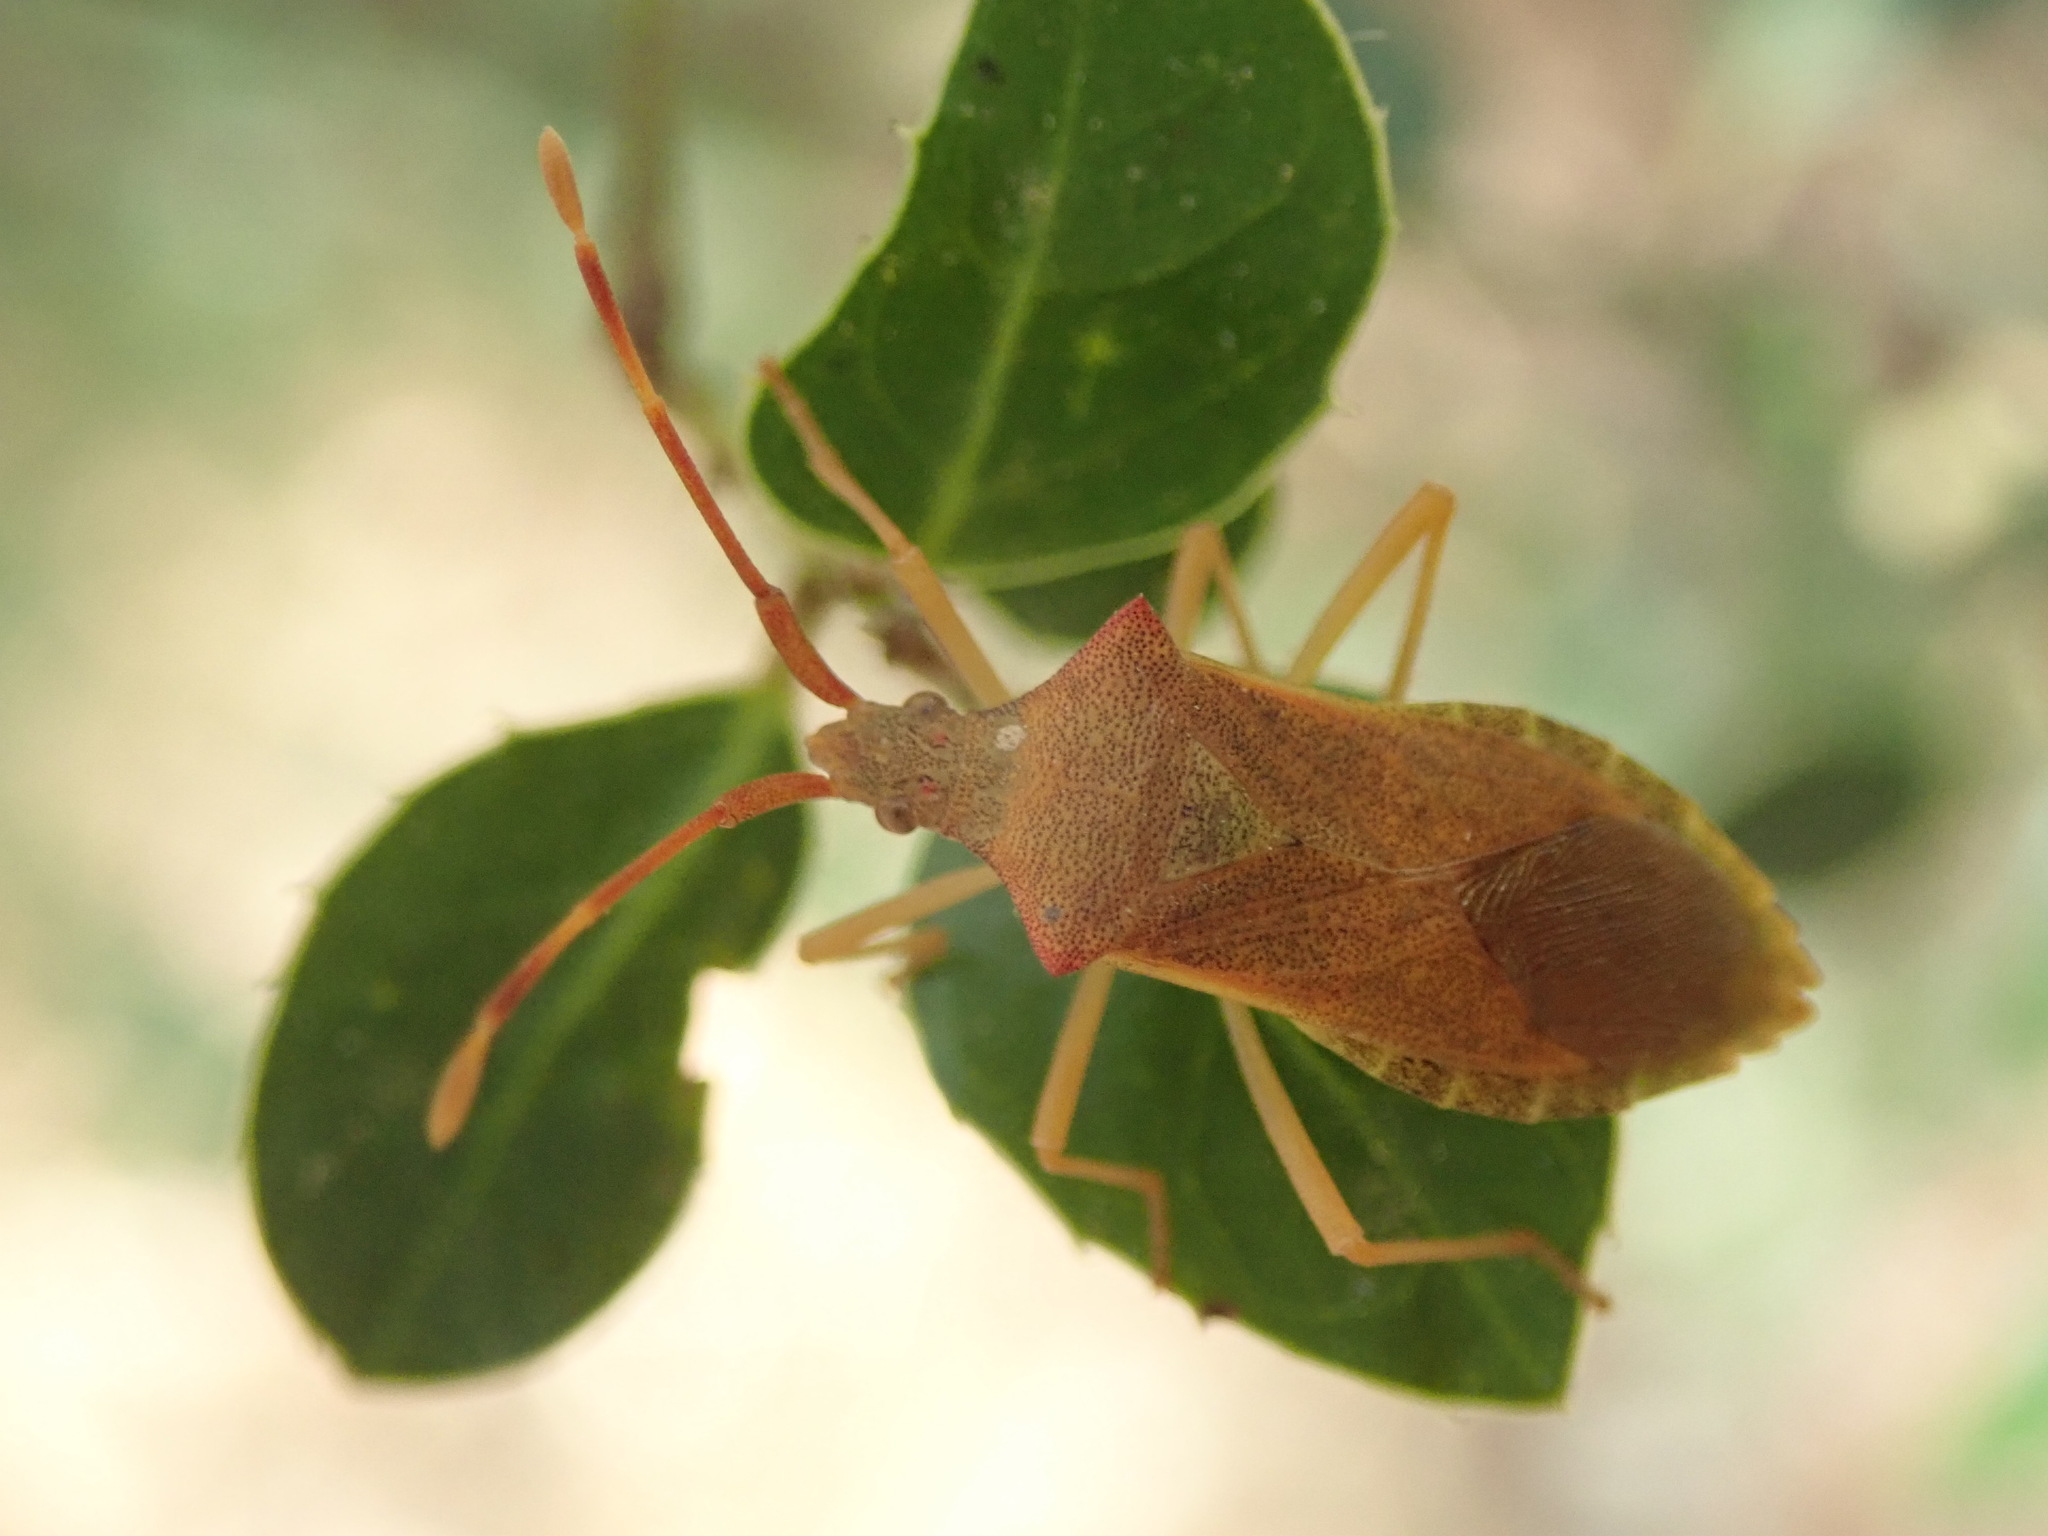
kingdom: Animalia
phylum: Arthropoda
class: Insecta
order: Hemiptera
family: Coreidae
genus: Gonocerus
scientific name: Gonocerus acuteangulatus
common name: Box bug
